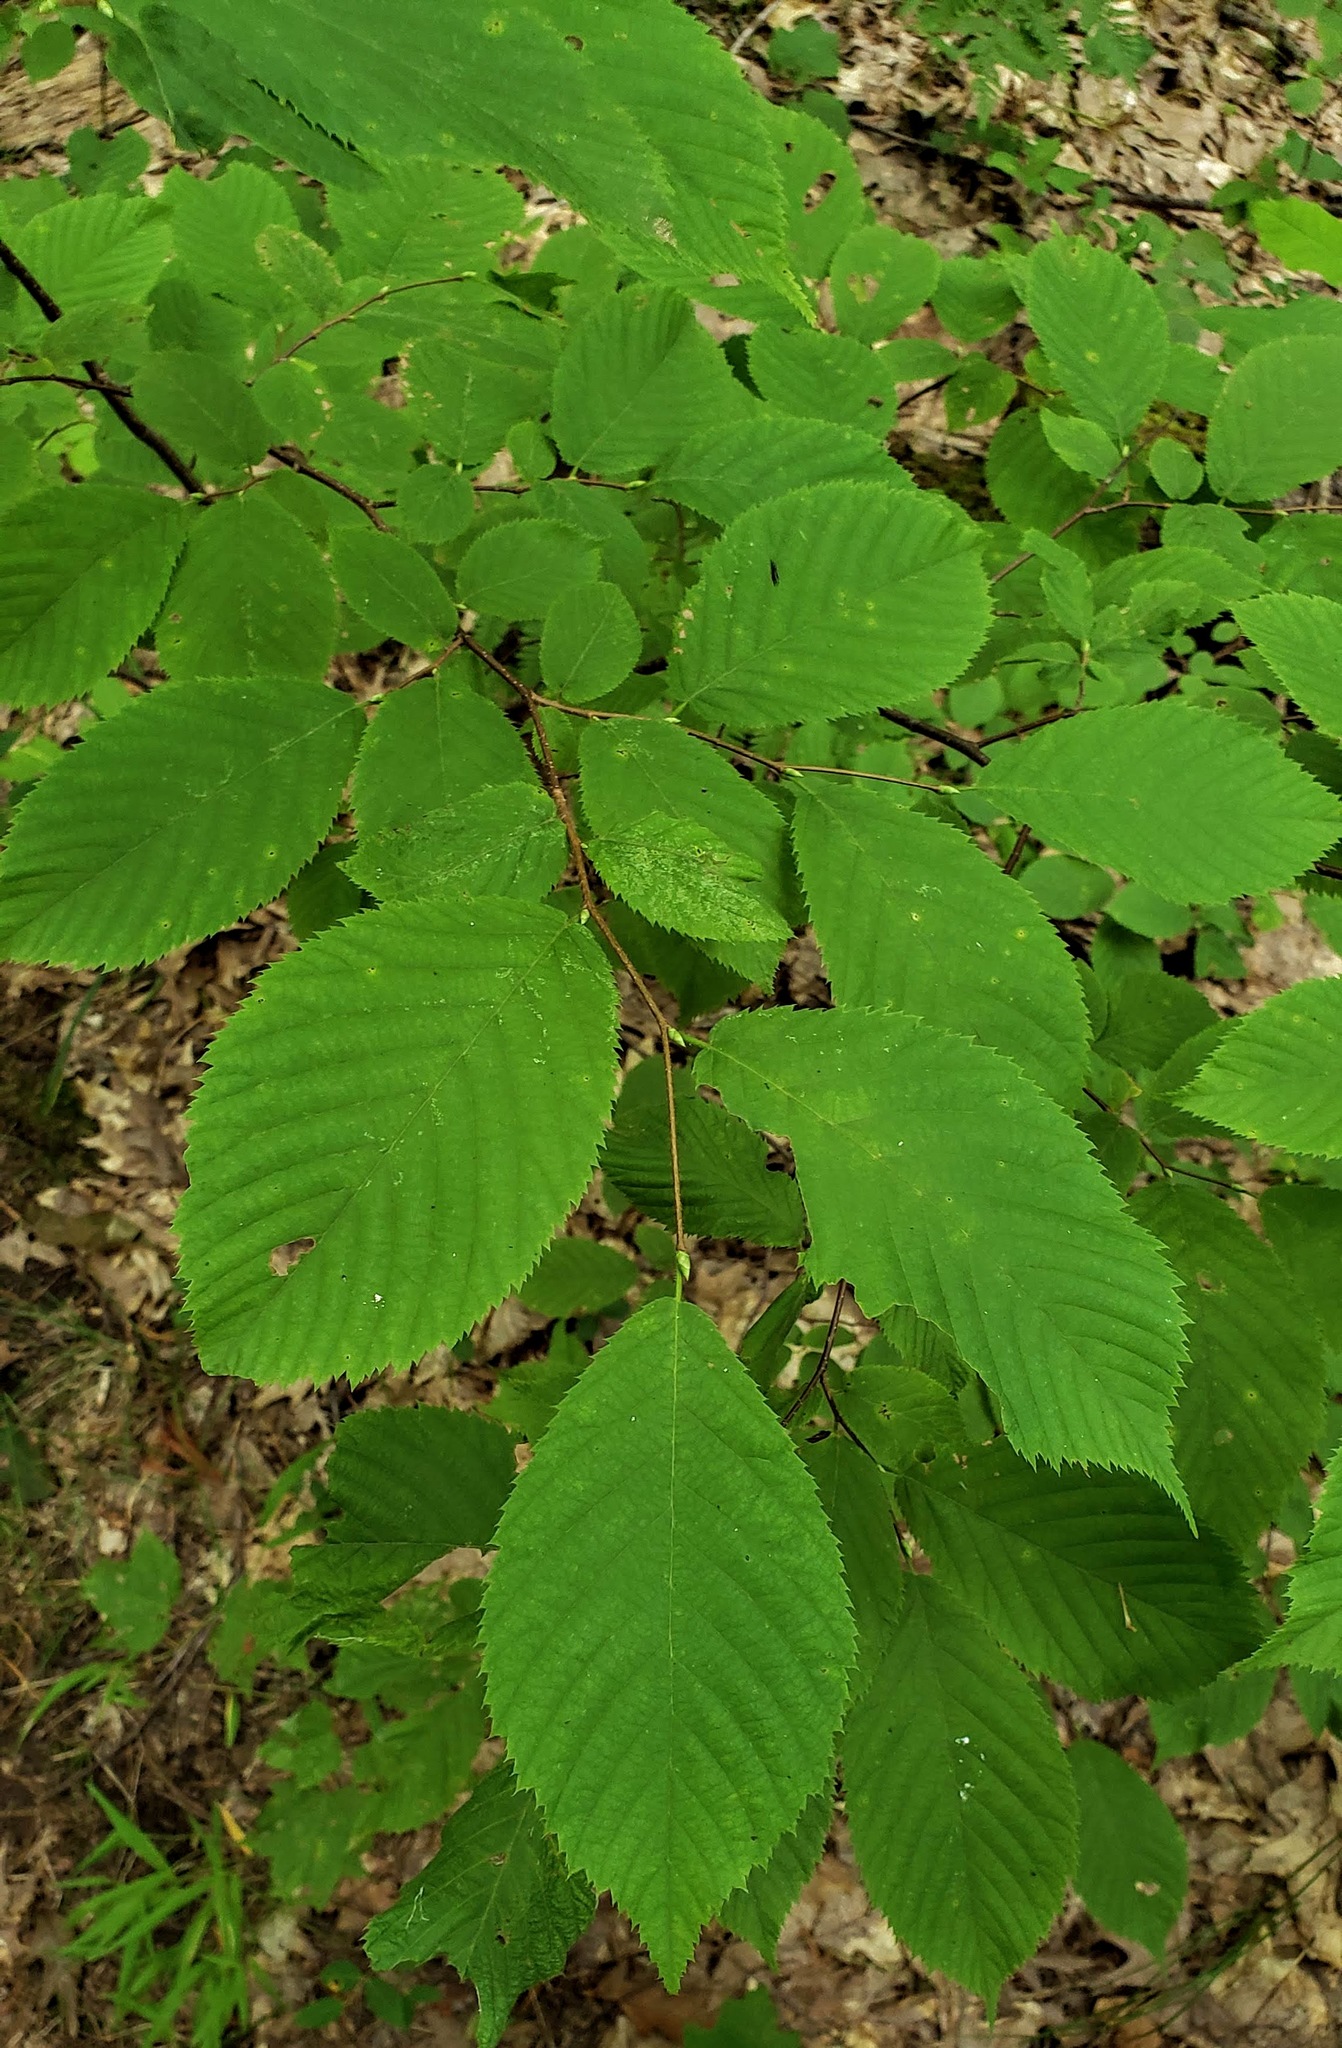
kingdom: Plantae
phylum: Tracheophyta
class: Magnoliopsida
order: Fagales
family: Betulaceae
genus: Ostrya
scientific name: Ostrya virginiana
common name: Ironwood
